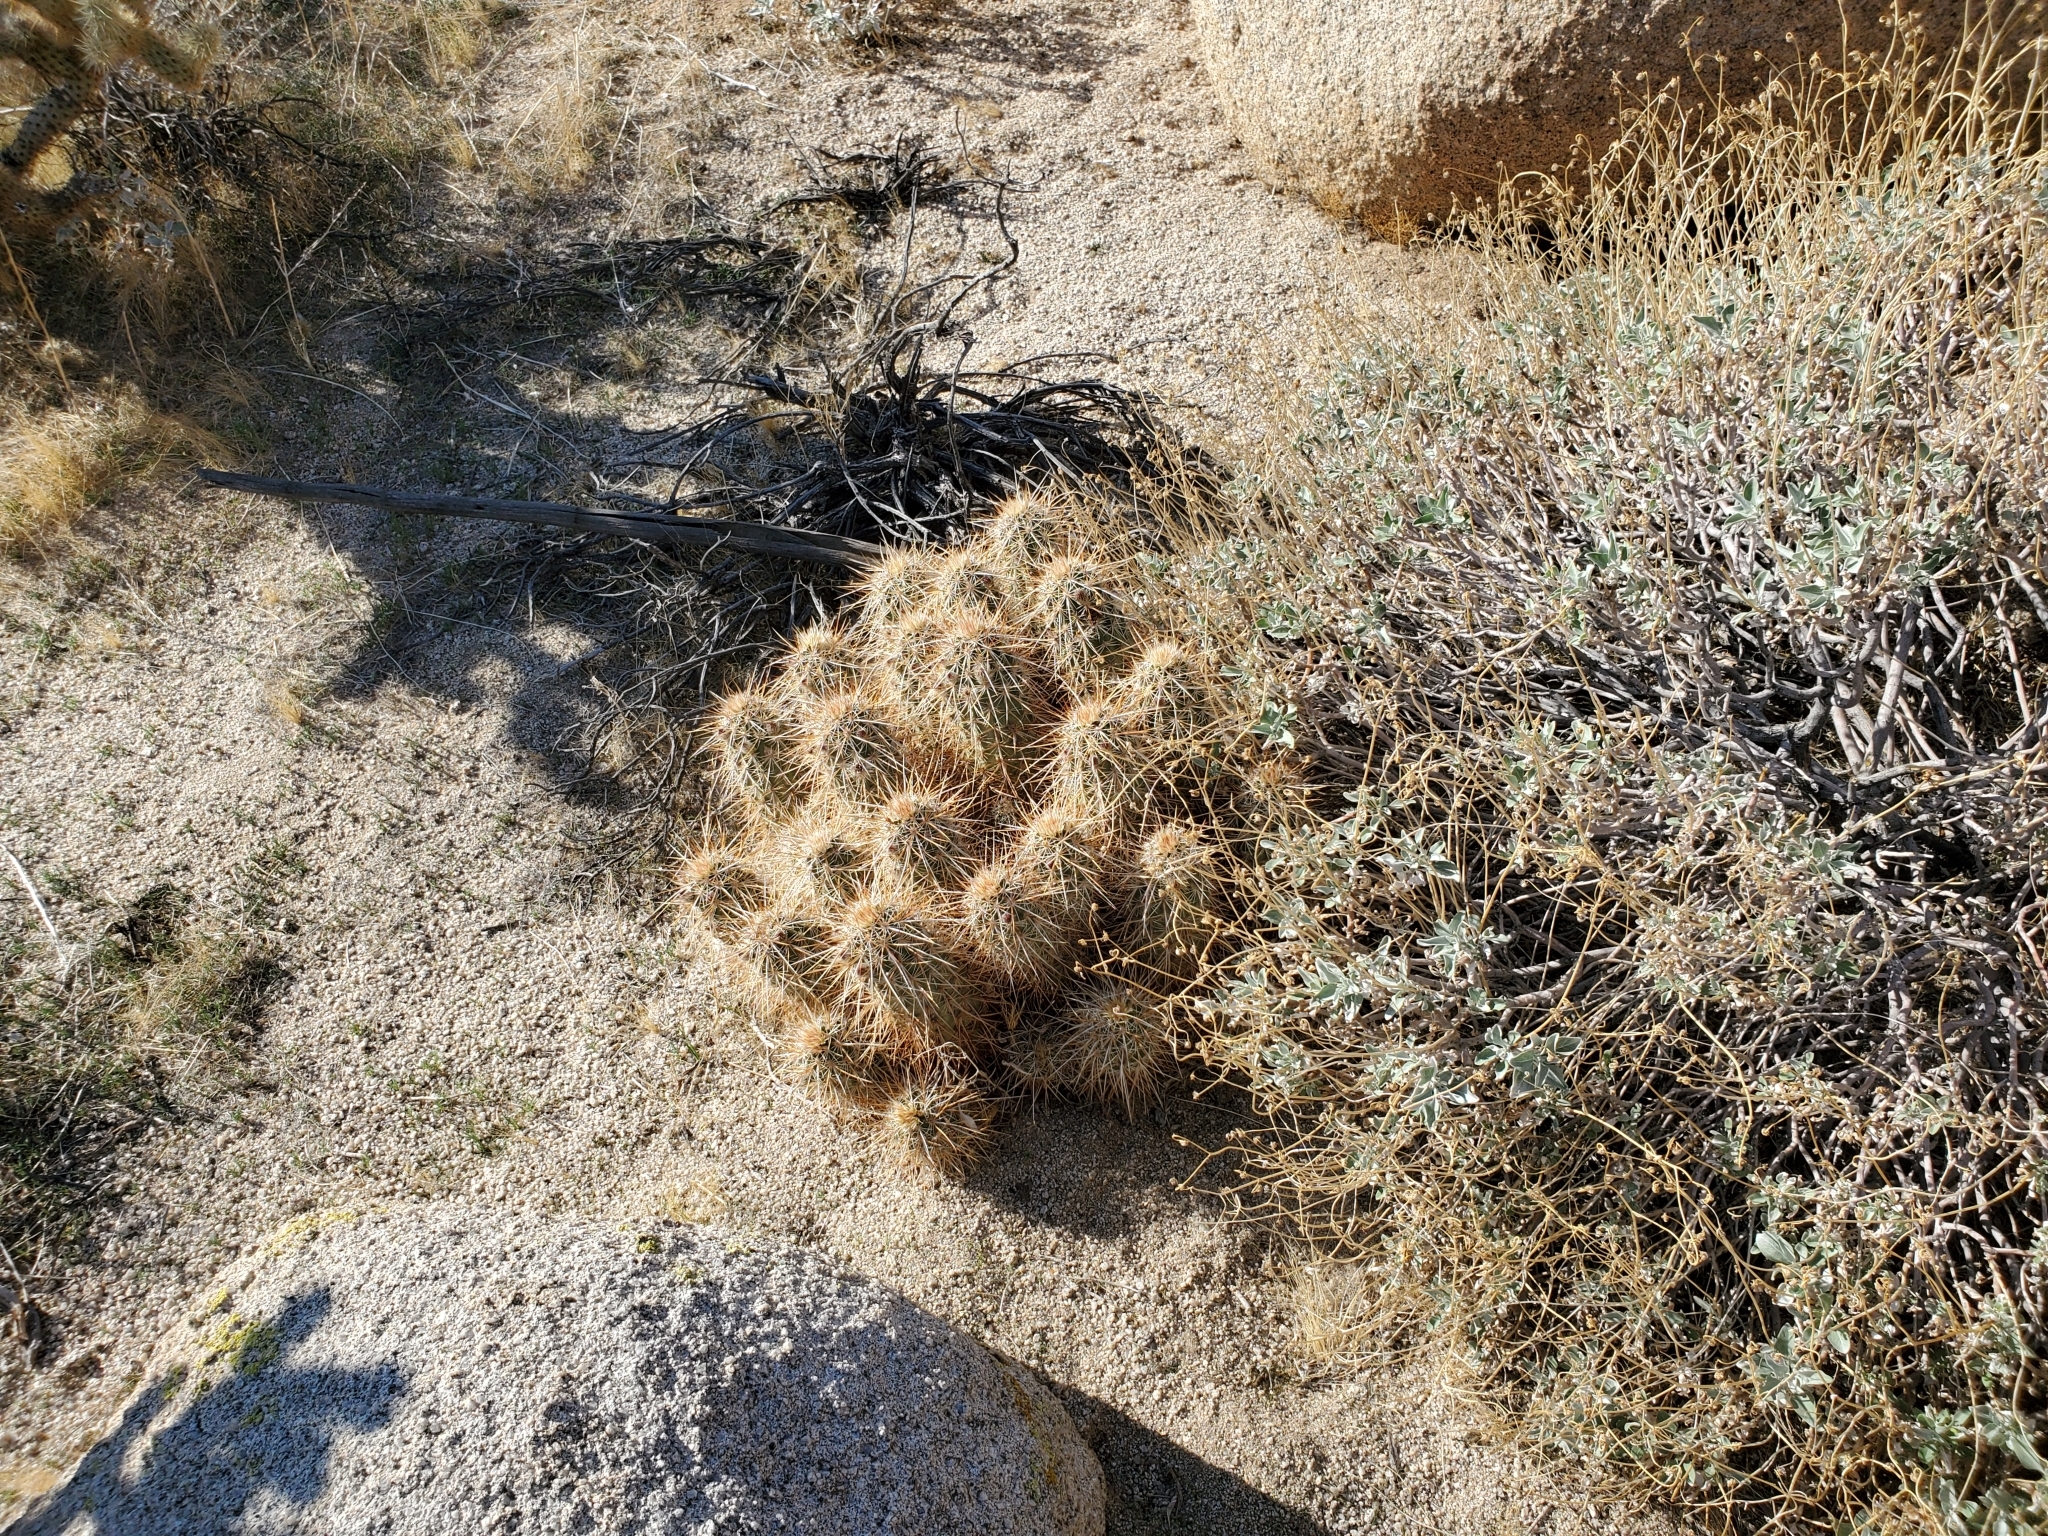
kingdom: Plantae
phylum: Tracheophyta
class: Magnoliopsida
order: Caryophyllales
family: Cactaceae
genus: Echinocereus
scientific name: Echinocereus engelmannii
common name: Engelmann's hedgehog cactus
